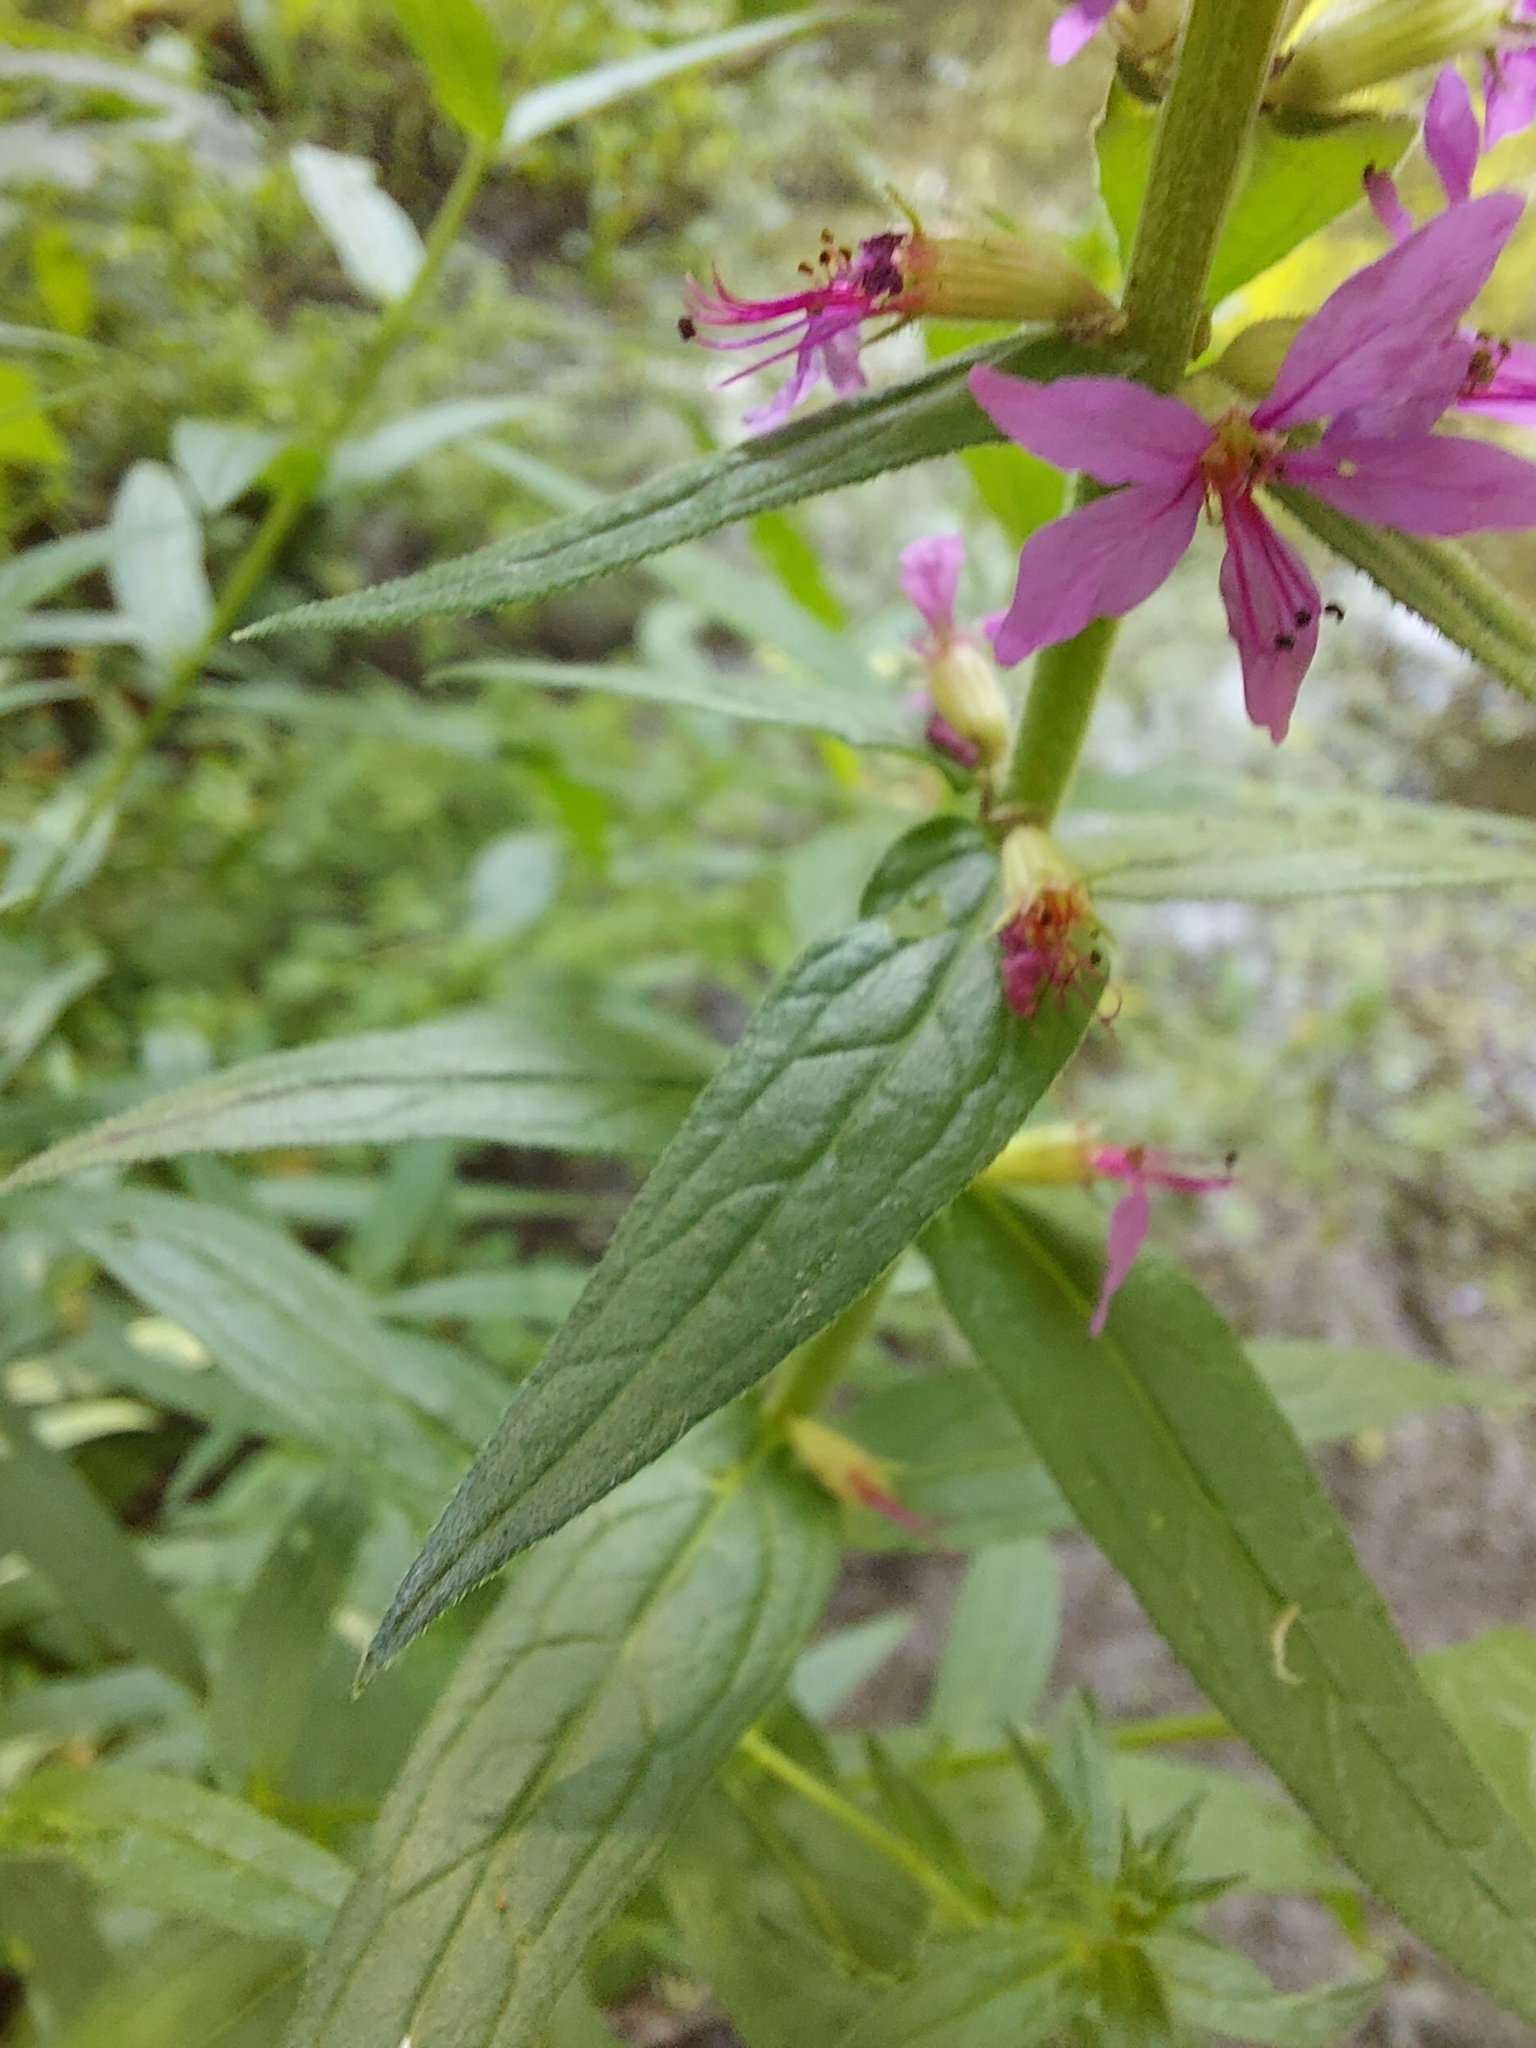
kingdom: Plantae
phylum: Tracheophyta
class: Magnoliopsida
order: Myrtales
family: Lythraceae
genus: Lythrum
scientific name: Lythrum salicaria
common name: Purple loosestrife
